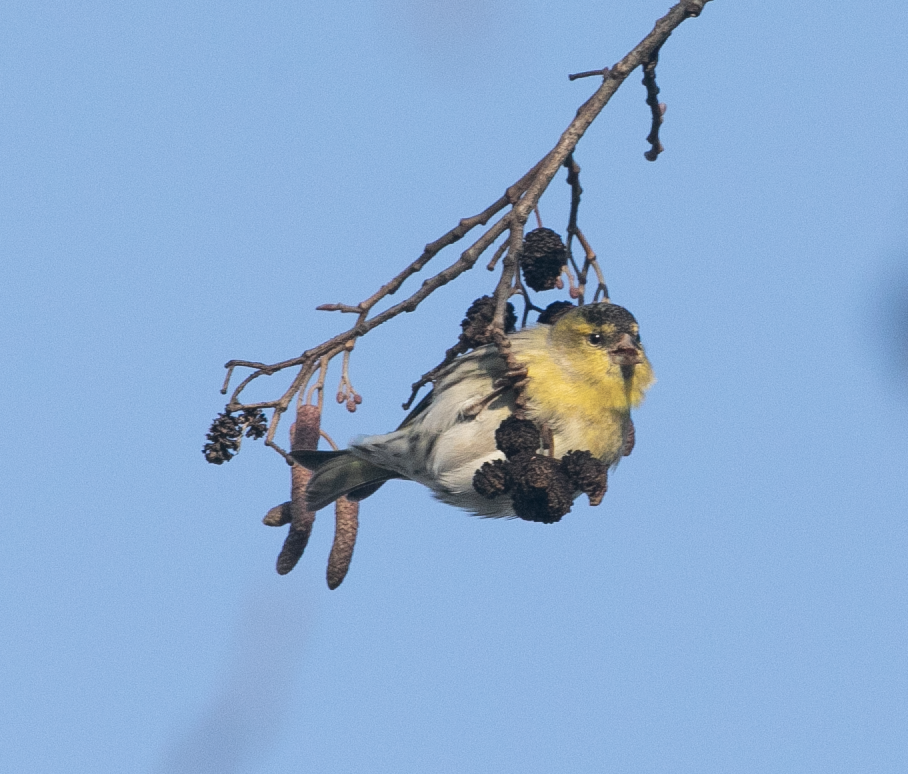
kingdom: Animalia
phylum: Chordata
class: Aves
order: Passeriformes
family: Fringillidae
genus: Spinus
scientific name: Spinus spinus
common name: Eurasian siskin
